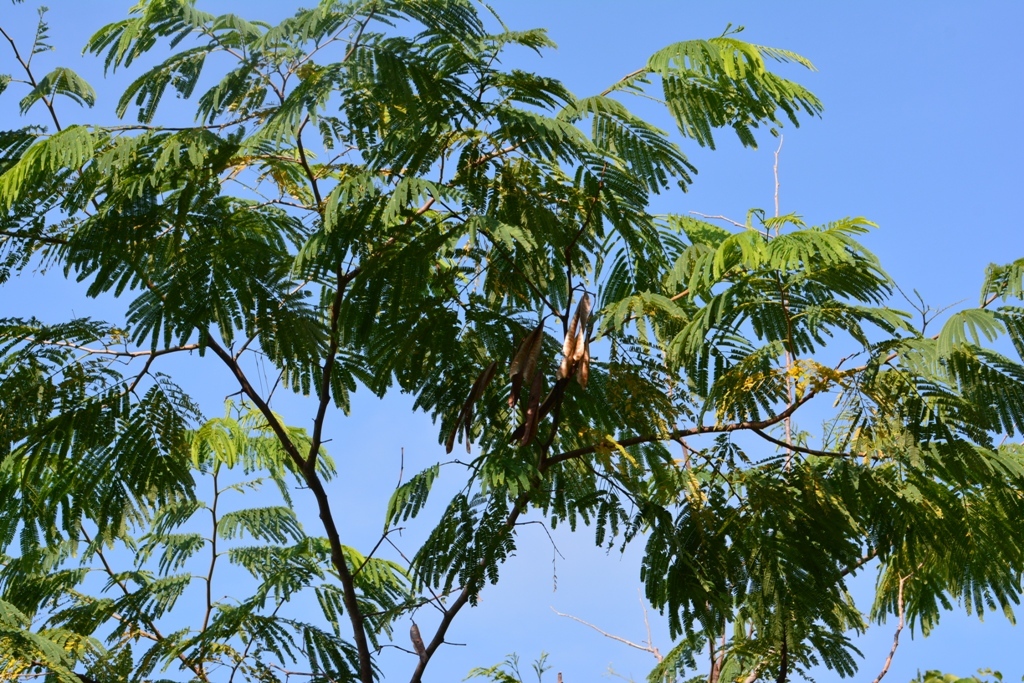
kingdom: Plantae
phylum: Tracheophyta
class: Magnoliopsida
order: Fabales
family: Fabaceae
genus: Leucaena
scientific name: Leucaena diversifolia
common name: Red leucaena
